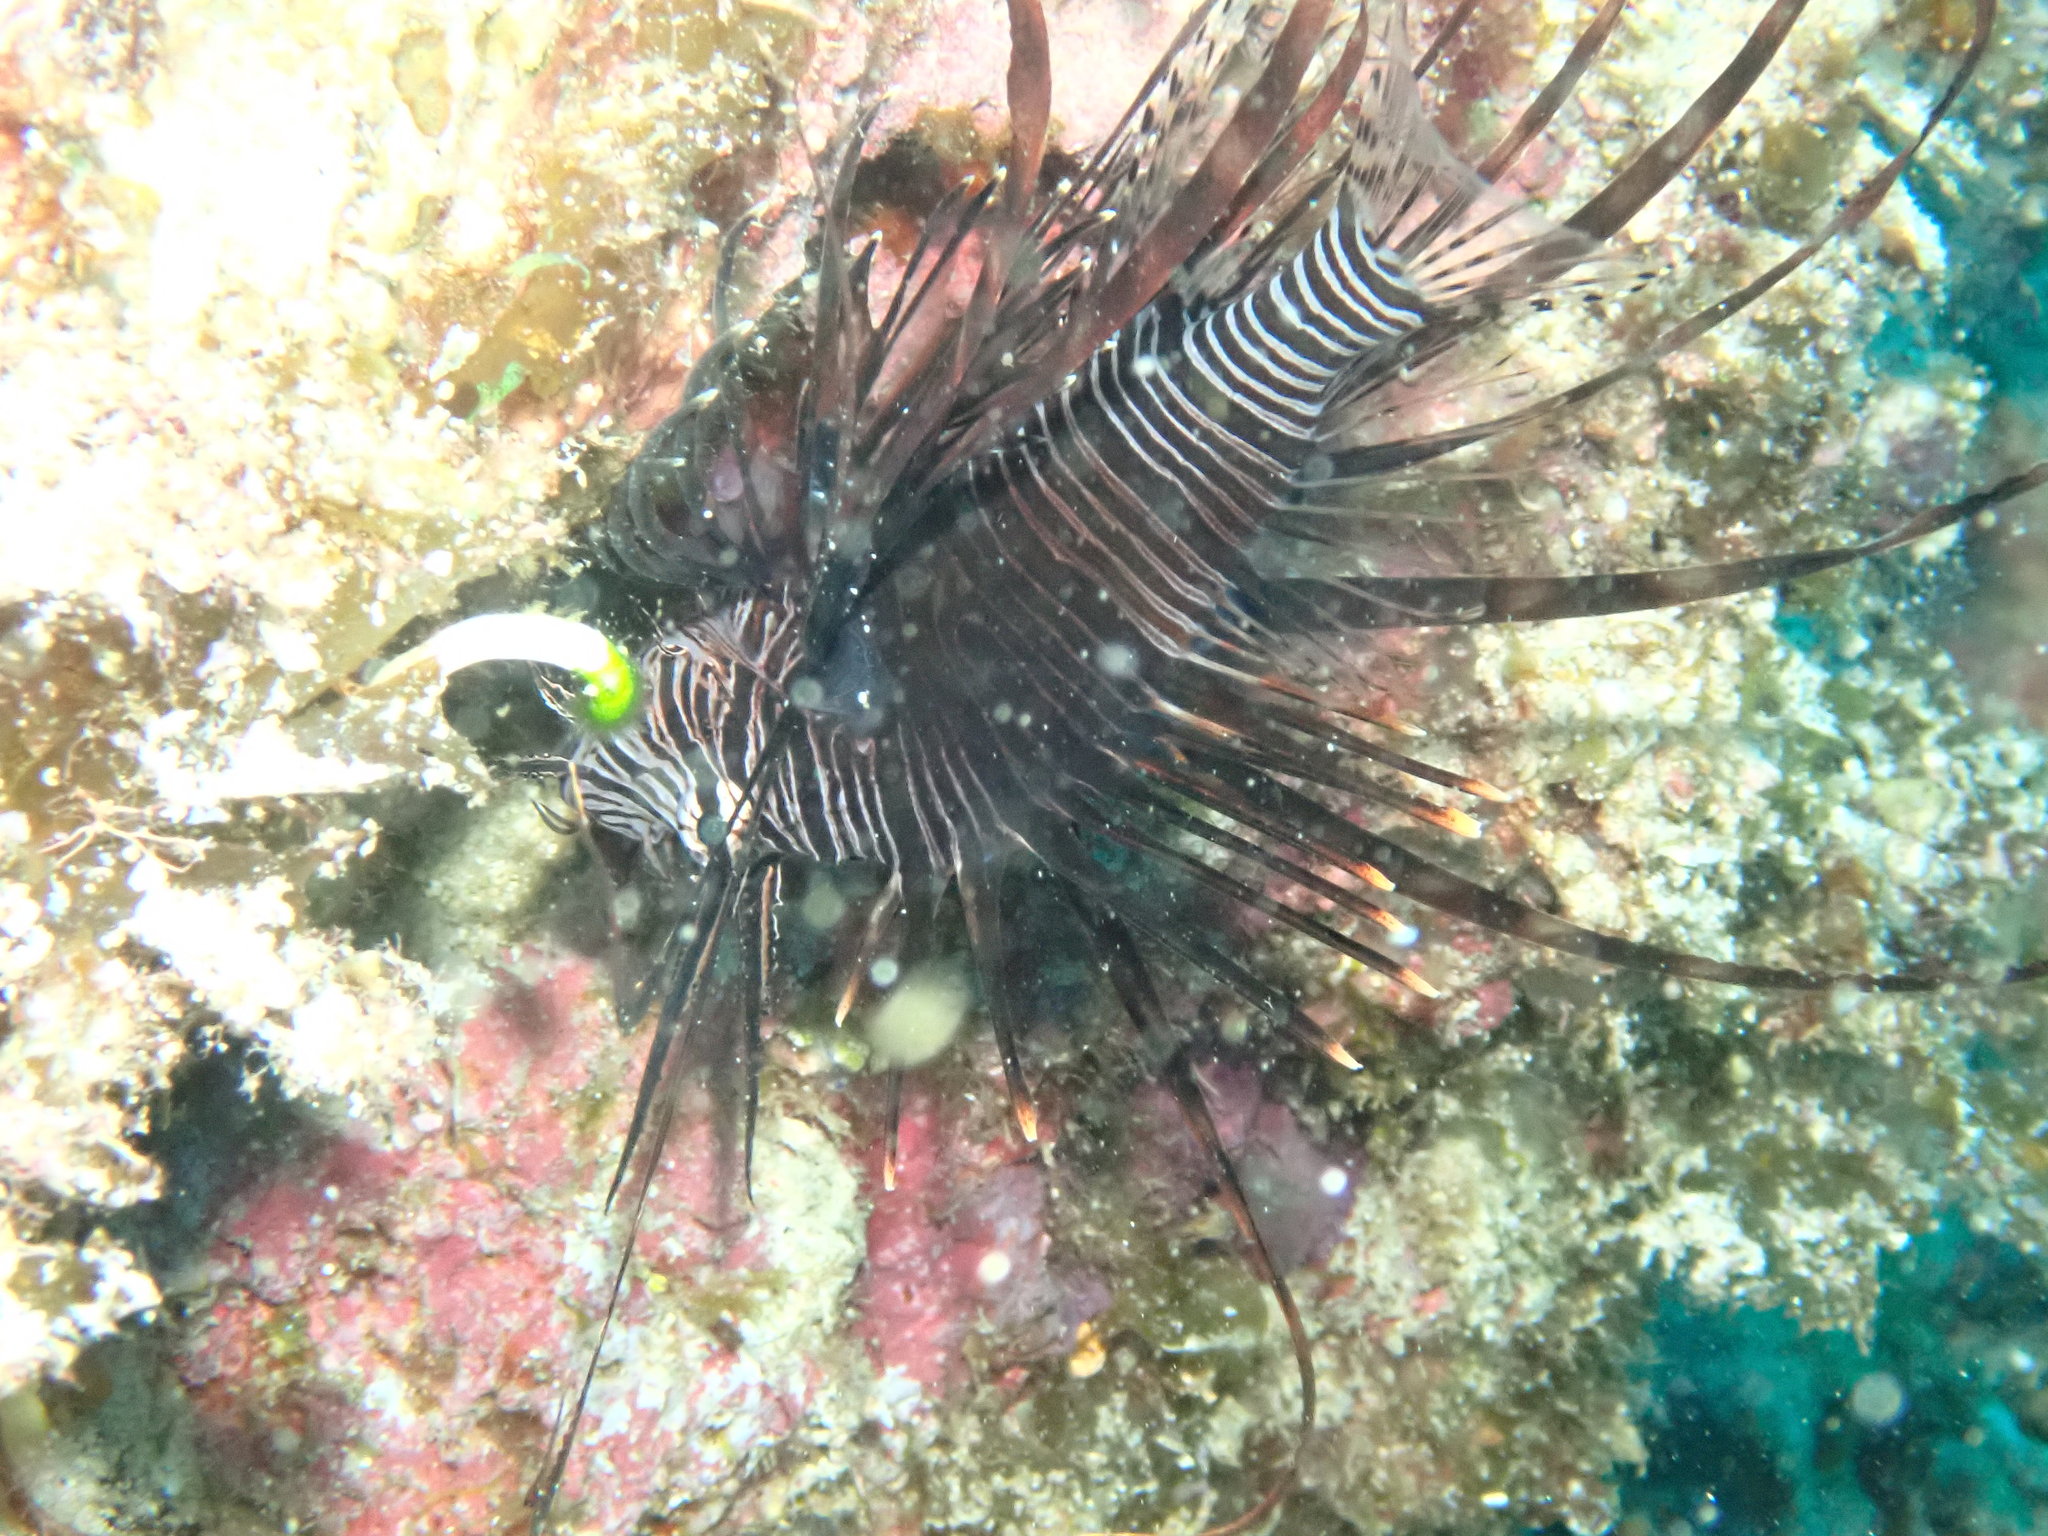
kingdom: Animalia
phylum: Chordata
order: Scorpaeniformes
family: Scorpaenidae
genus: Pterois
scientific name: Pterois volitans
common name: Lionfish
